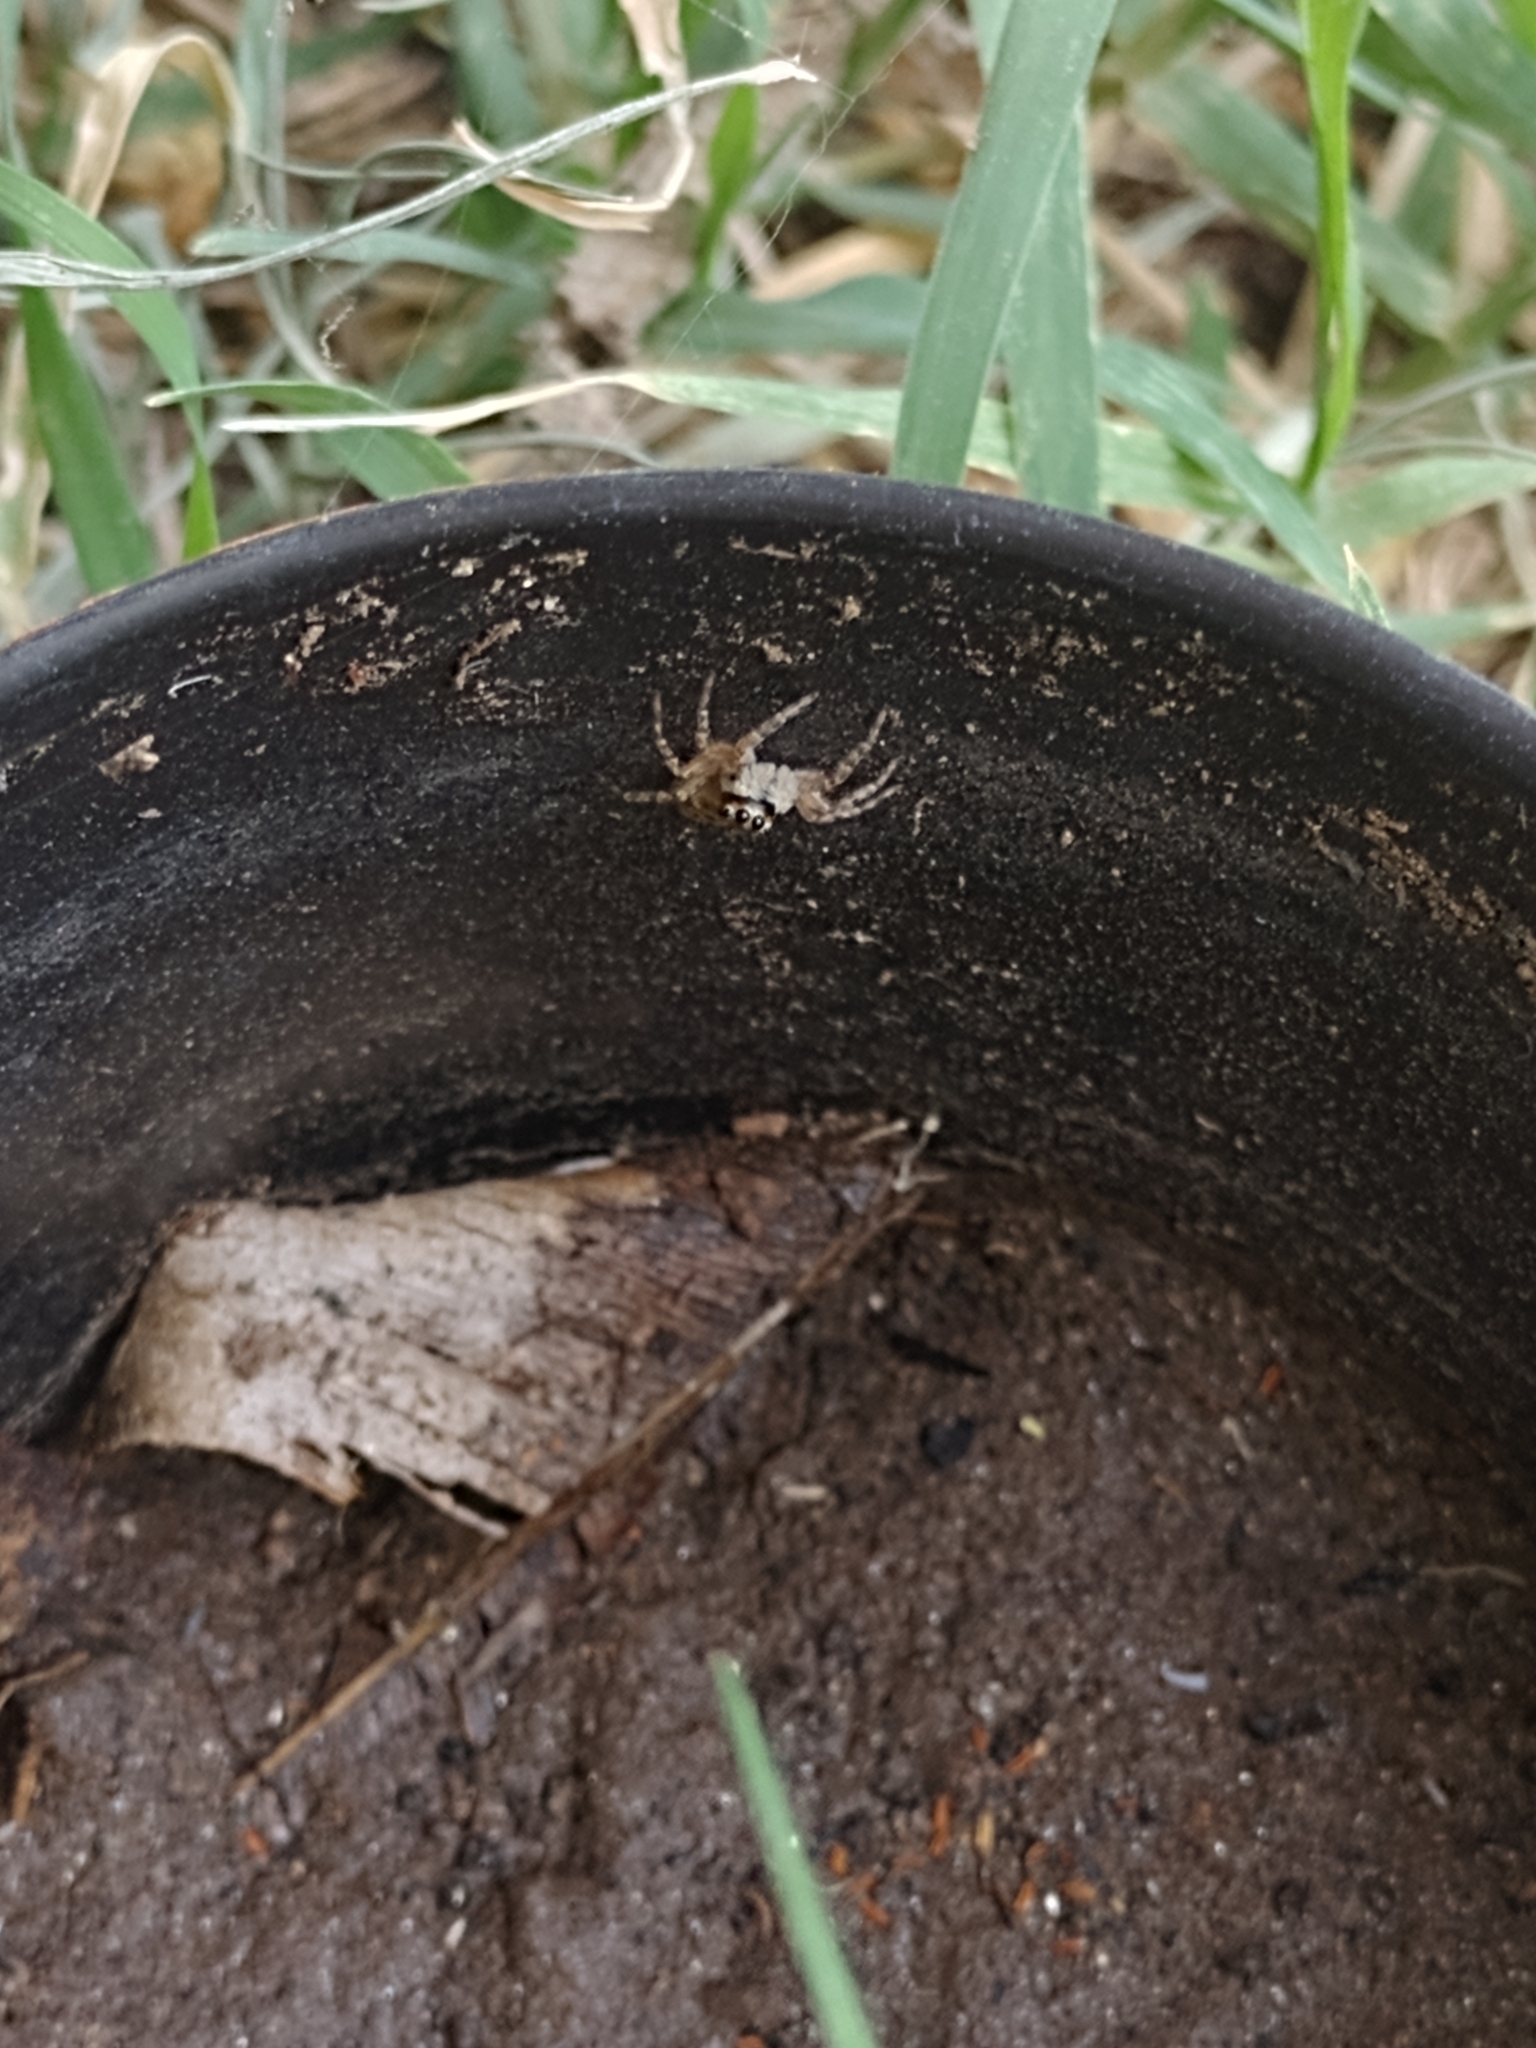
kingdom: Animalia
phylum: Arthropoda
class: Arachnida
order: Araneae
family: Salticidae
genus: Menemerus
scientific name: Menemerus semilimbatus
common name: Jumping spider
